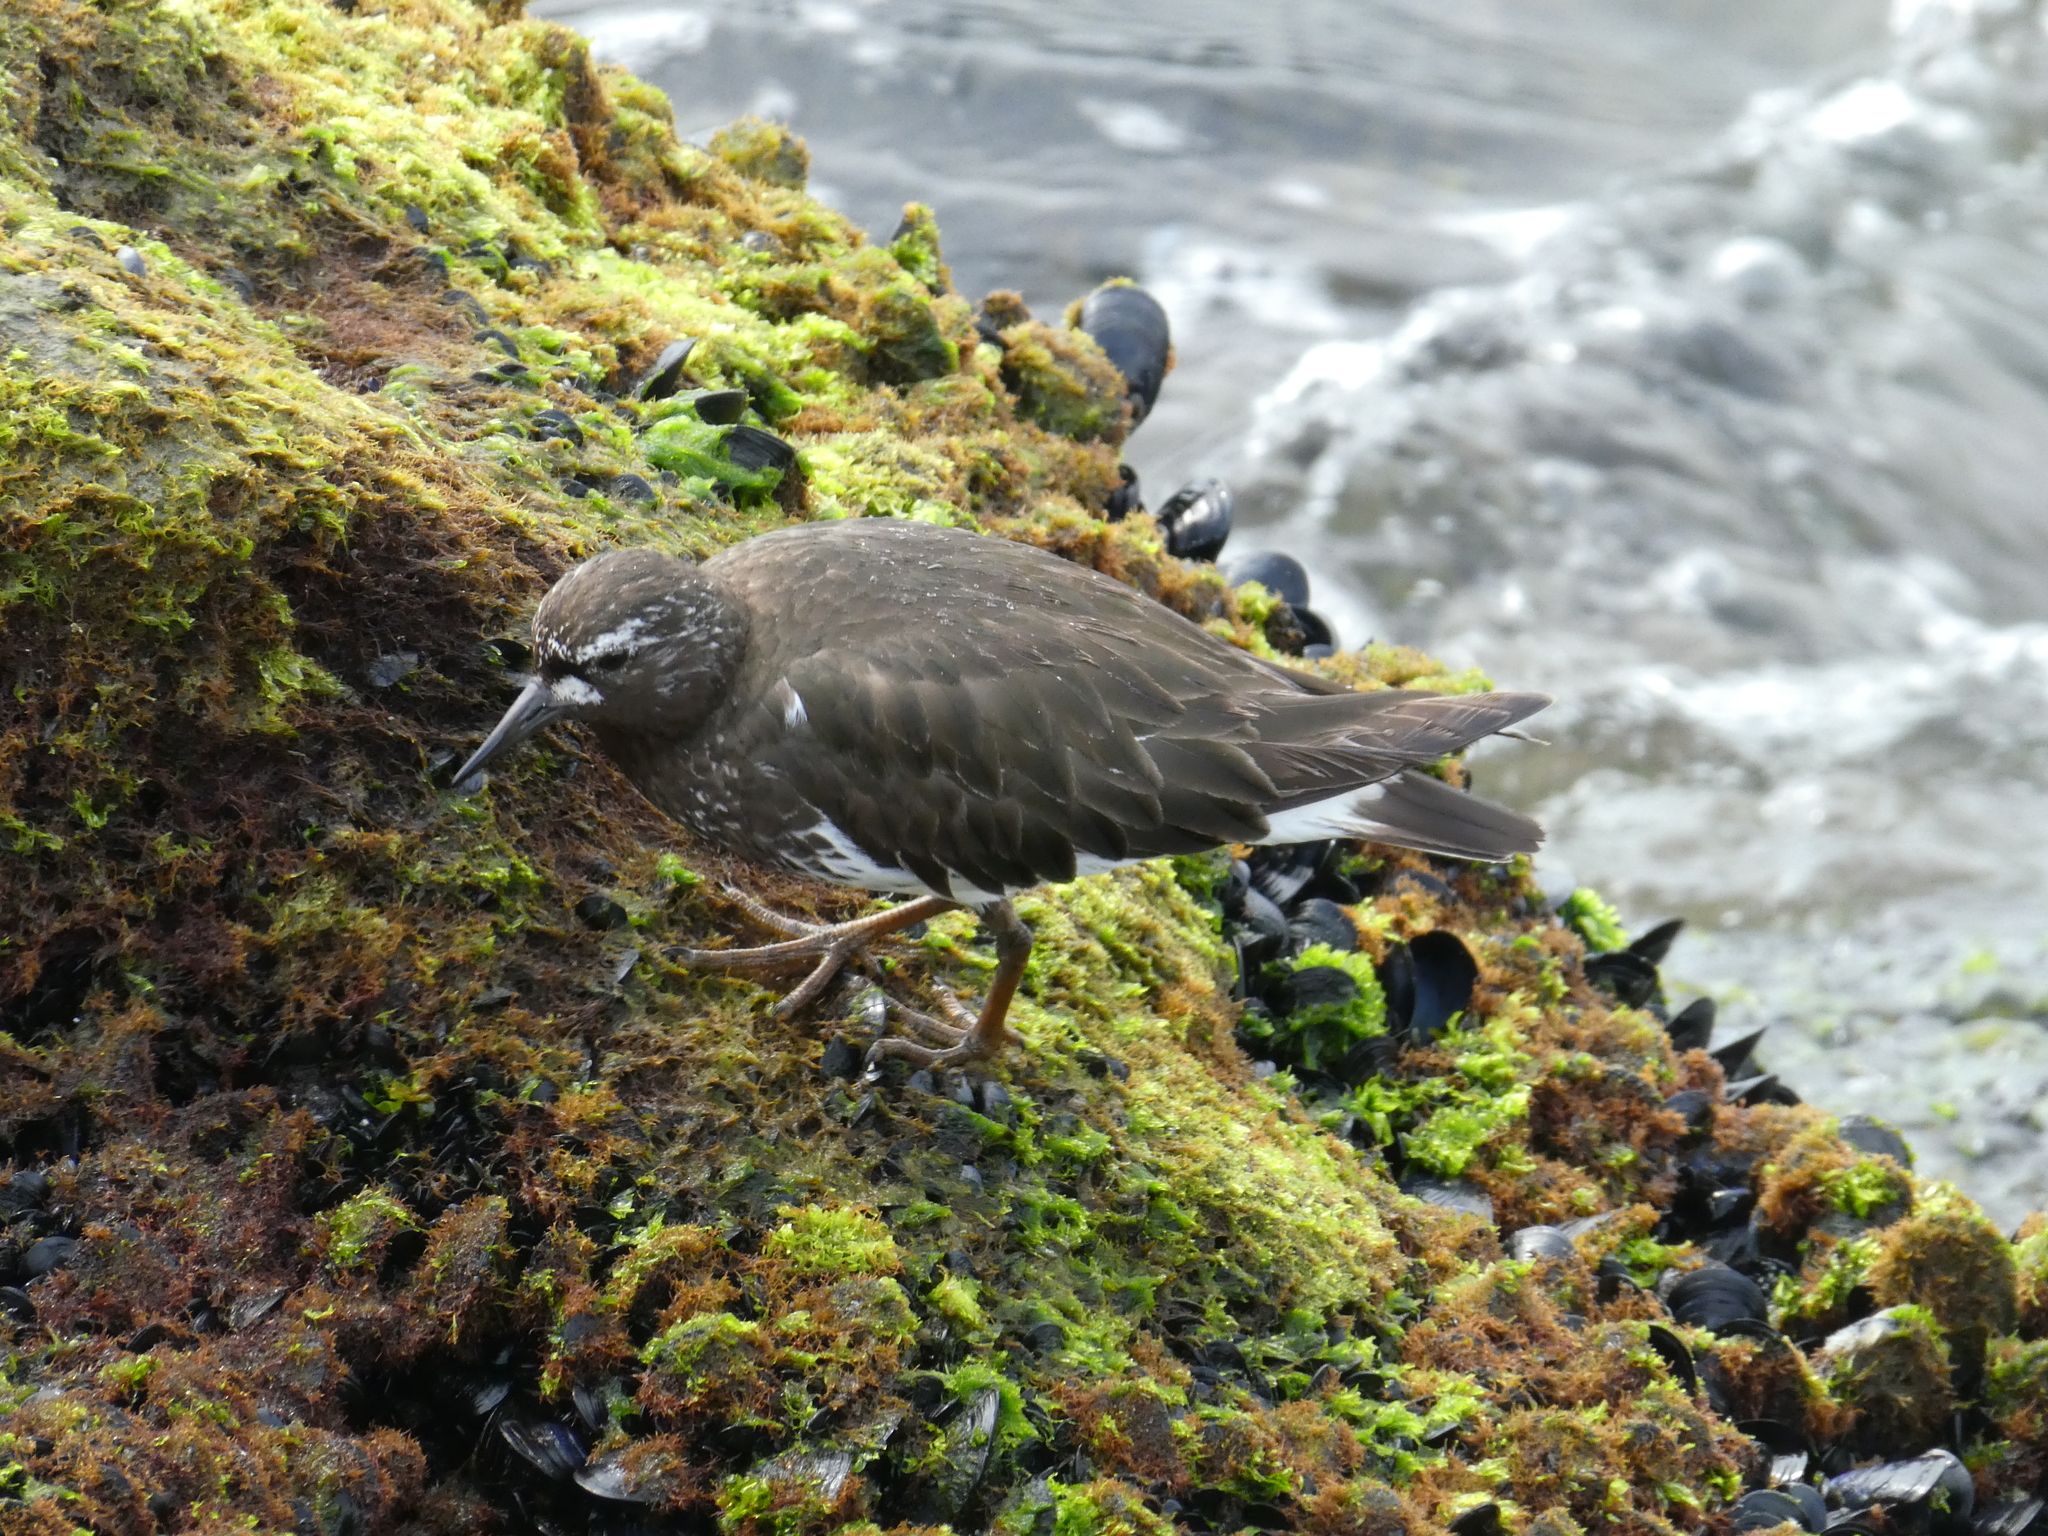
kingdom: Animalia
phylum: Chordata
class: Aves
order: Charadriiformes
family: Scolopacidae
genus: Arenaria
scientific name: Arenaria melanocephala
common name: Black turnstone
